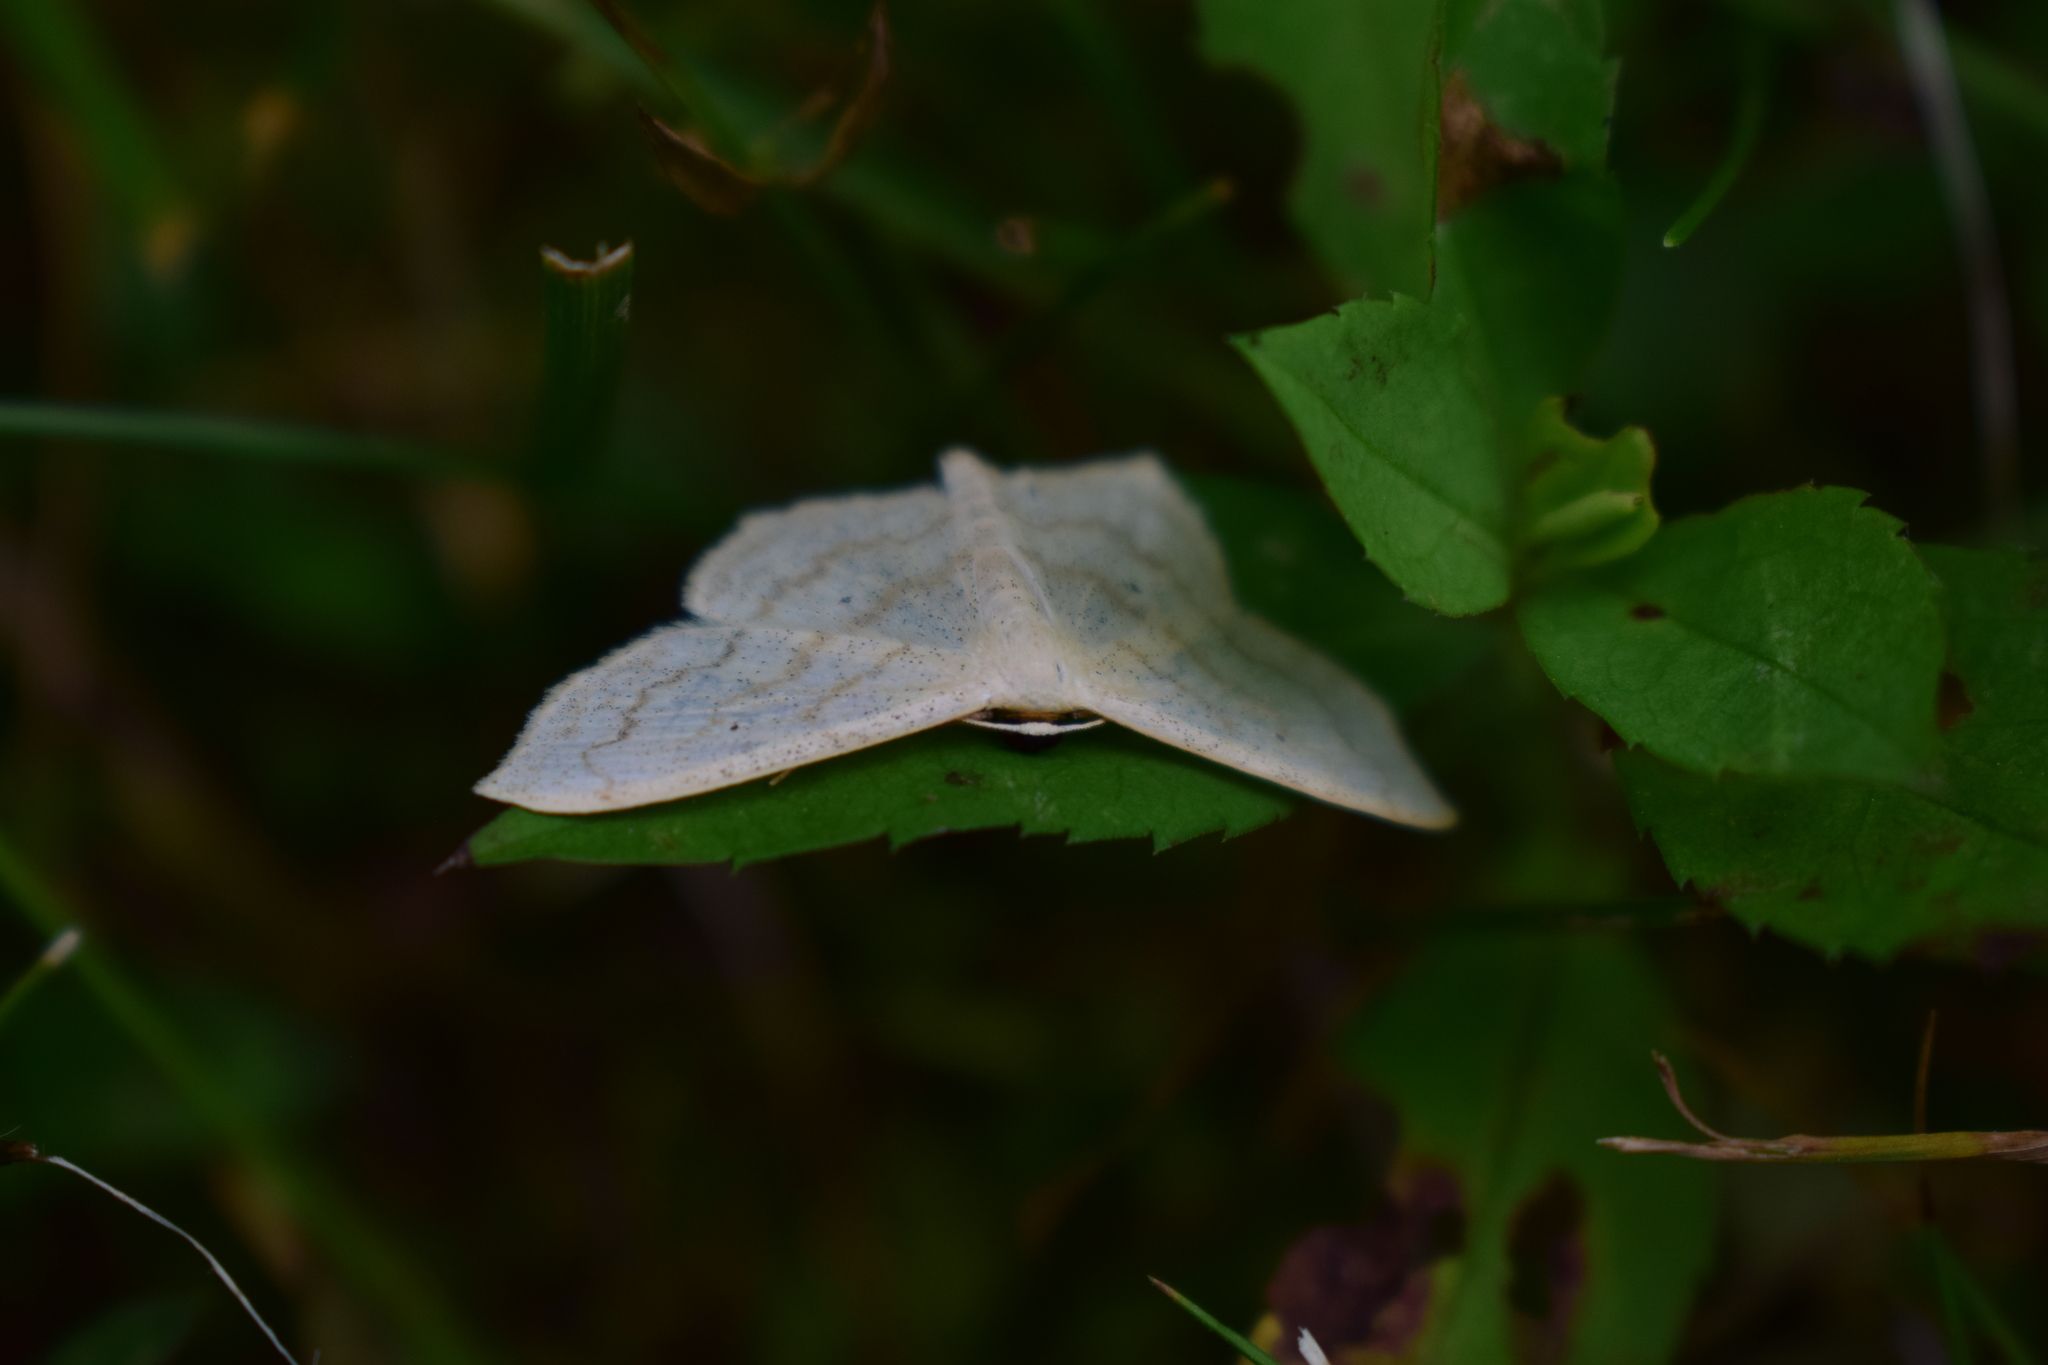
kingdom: Animalia
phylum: Arthropoda
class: Insecta
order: Lepidoptera
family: Geometridae
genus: Scopula
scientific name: Scopula limboundata
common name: Large lace border
